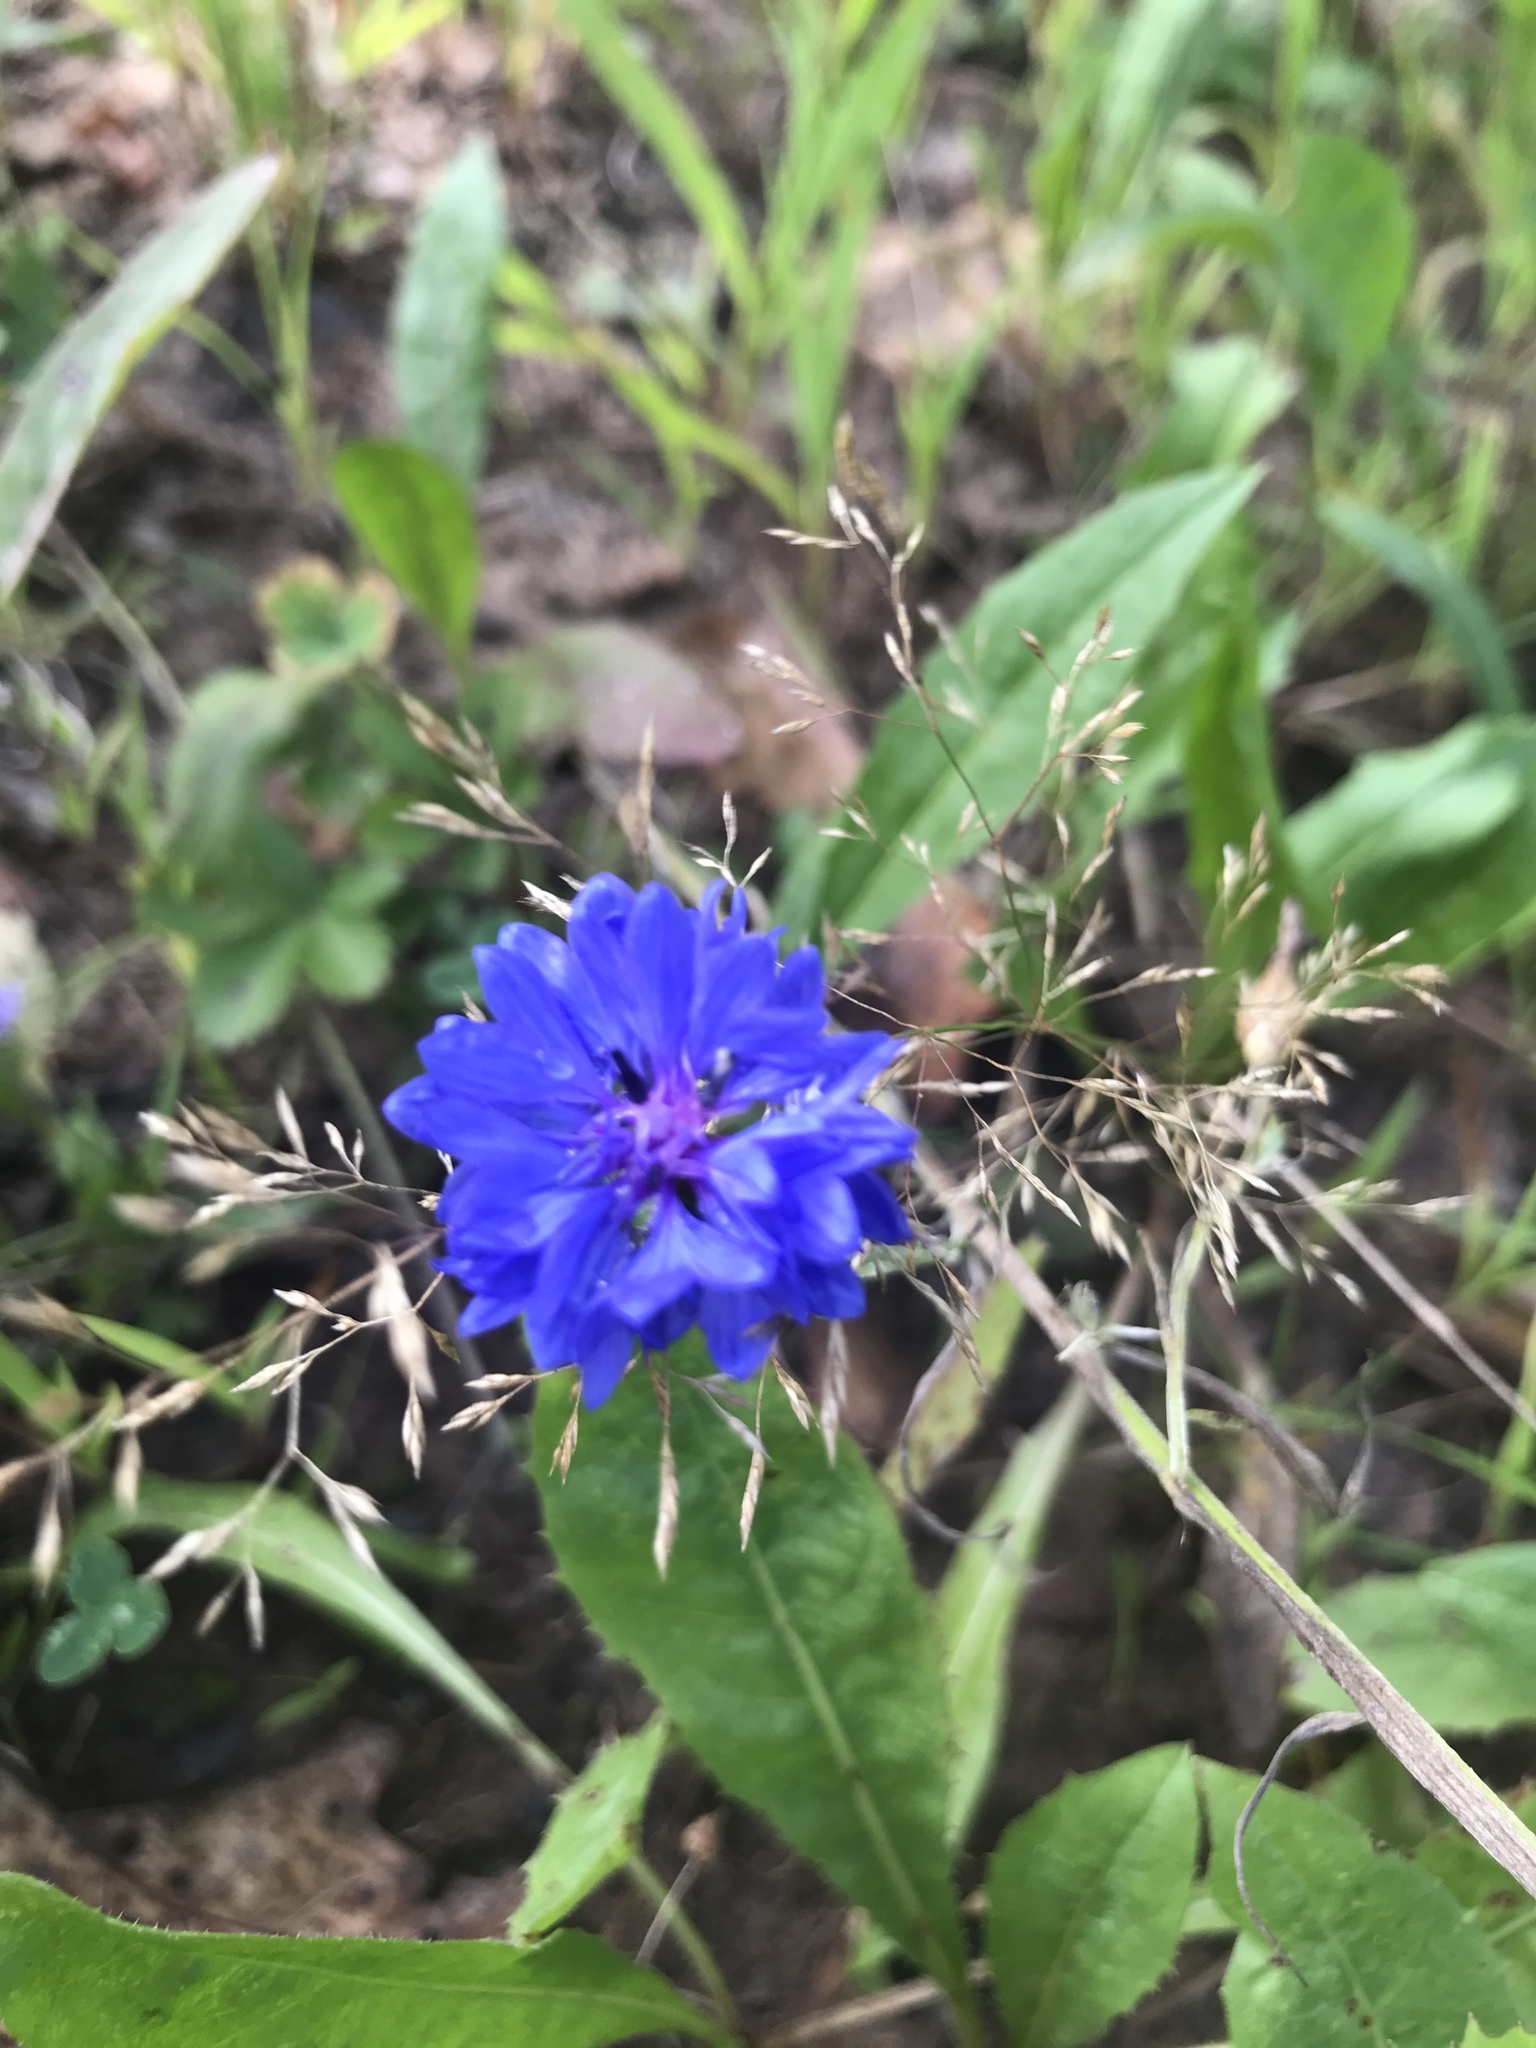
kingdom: Plantae
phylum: Tracheophyta
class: Magnoliopsida
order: Asterales
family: Asteraceae
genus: Centaurea
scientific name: Centaurea cyanus
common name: Cornflower
